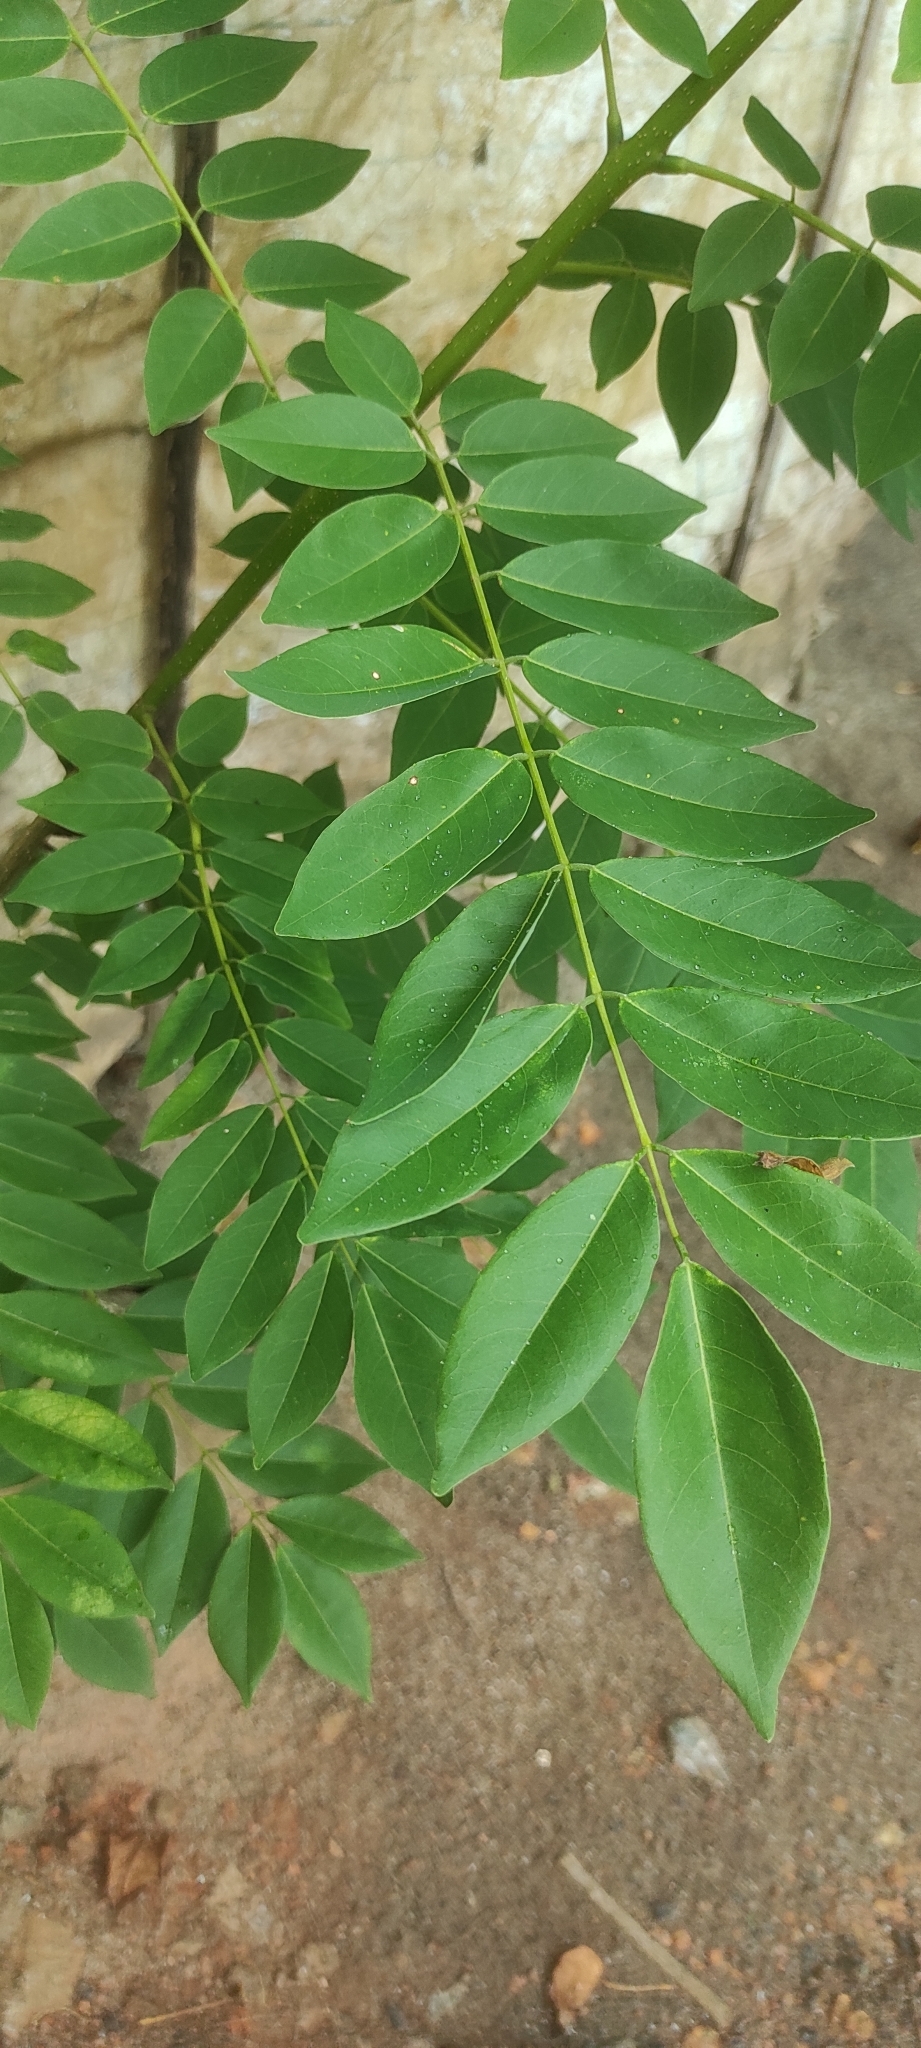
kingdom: Plantae
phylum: Tracheophyta
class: Magnoliopsida
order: Fabales
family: Fabaceae
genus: Gliricidia
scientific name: Gliricidia sepium
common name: Quickstick
